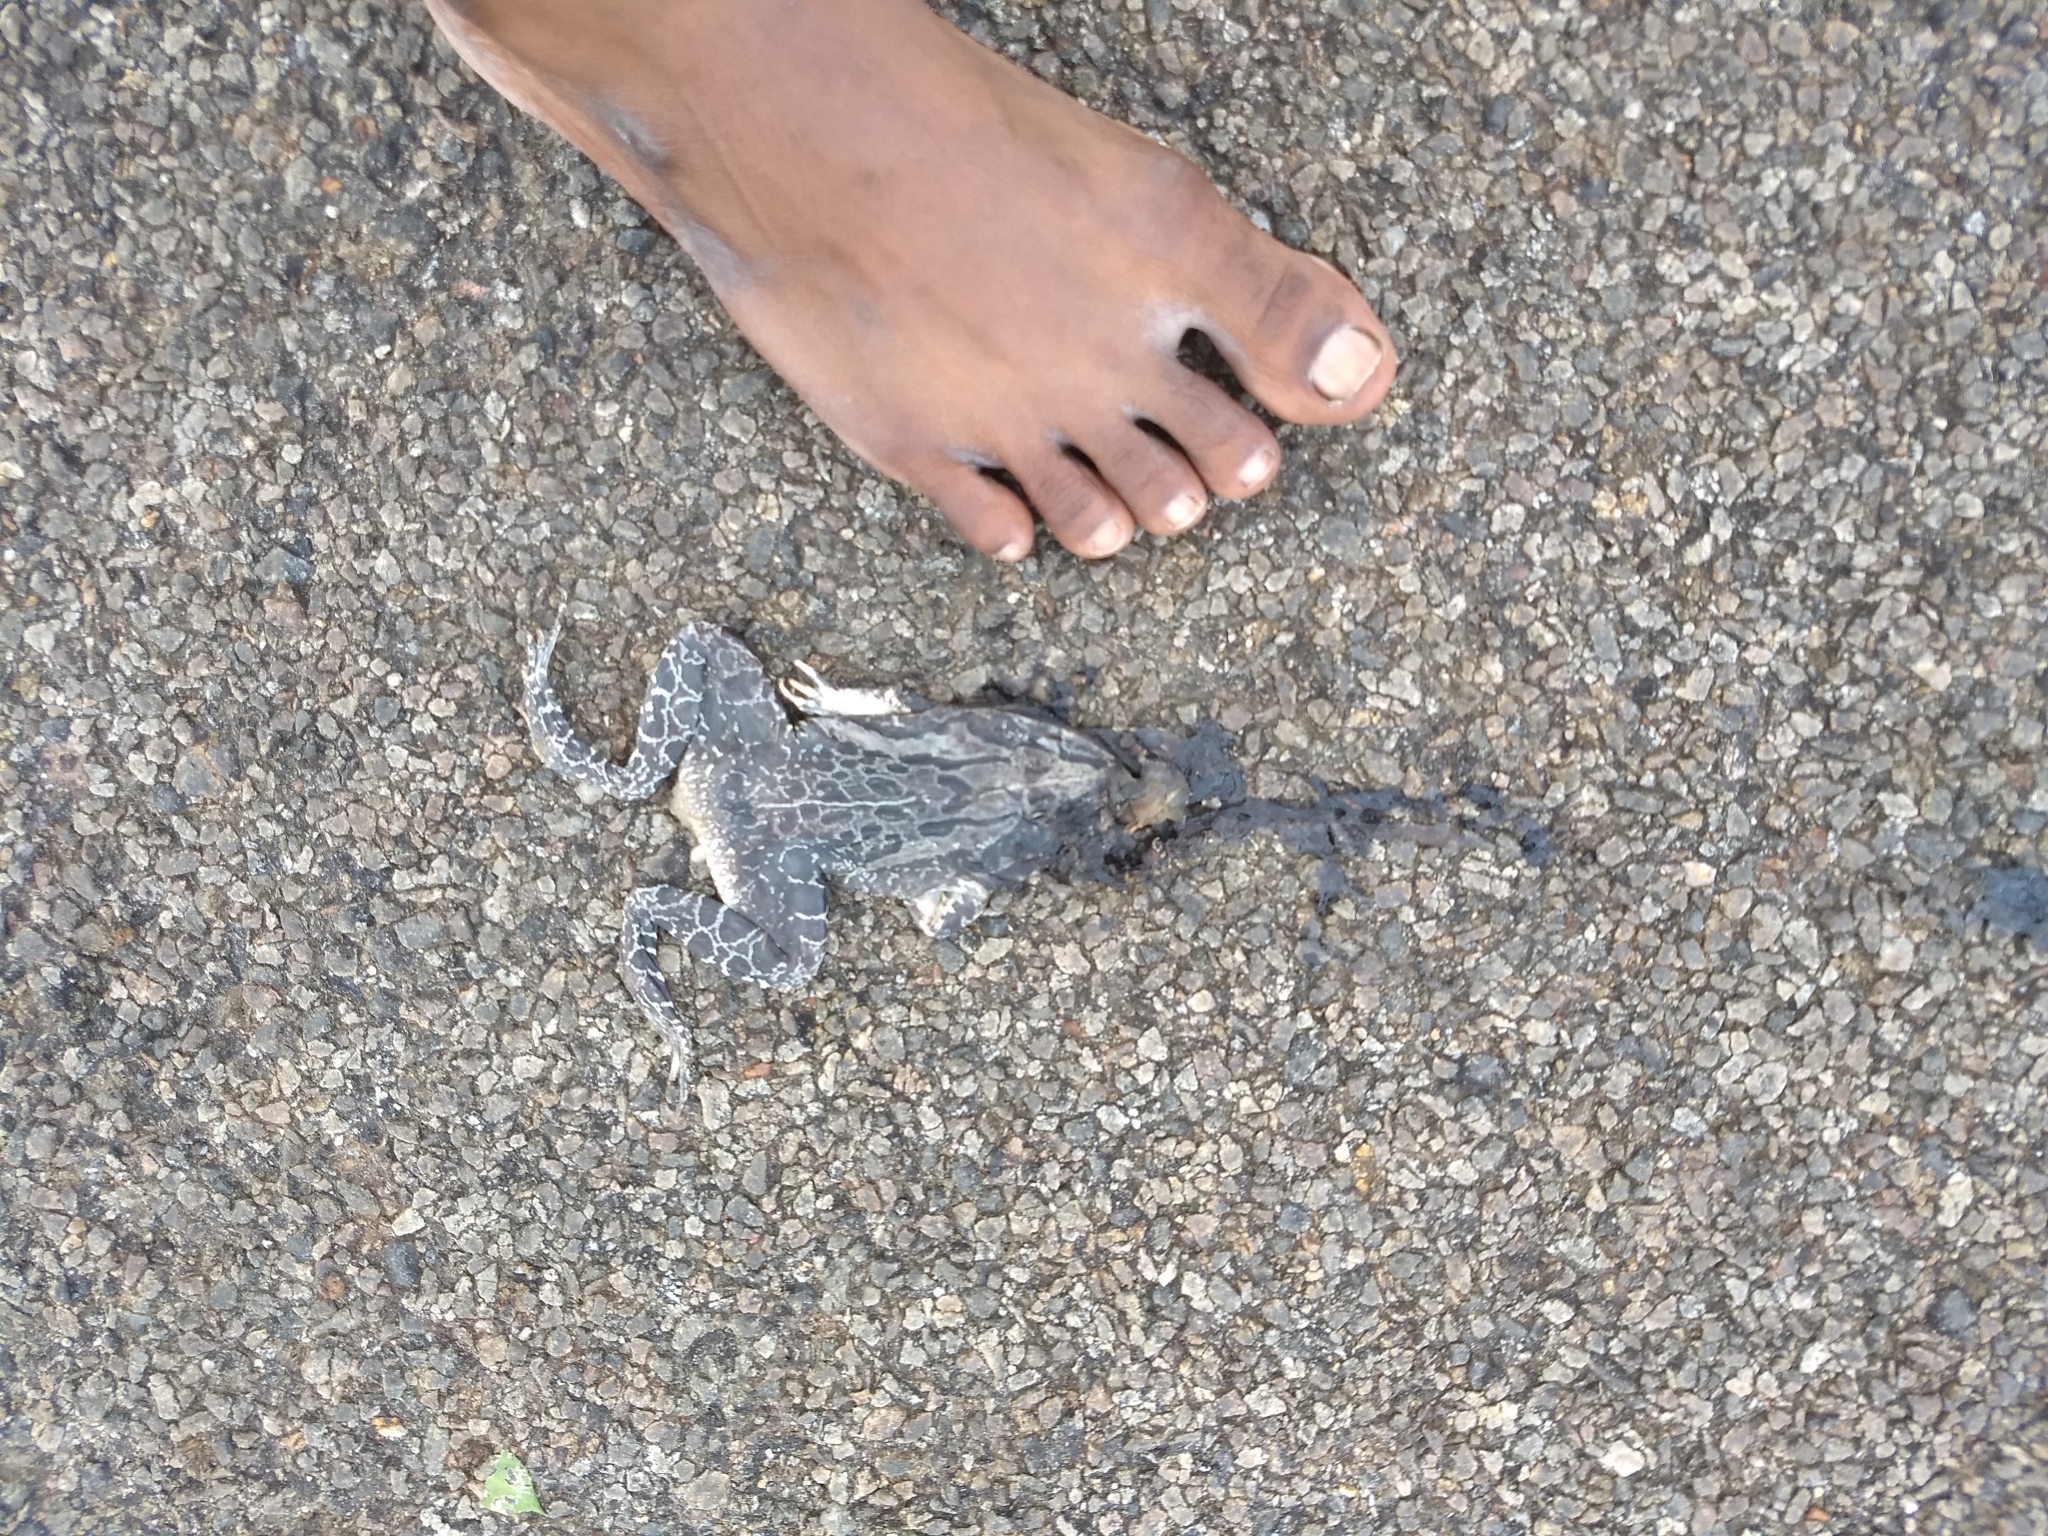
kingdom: Animalia
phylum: Chordata
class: Amphibia
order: Anura
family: Dicroglossidae
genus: Hoplobatrachus
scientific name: Hoplobatrachus tigerinus
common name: Indian bullfrog
